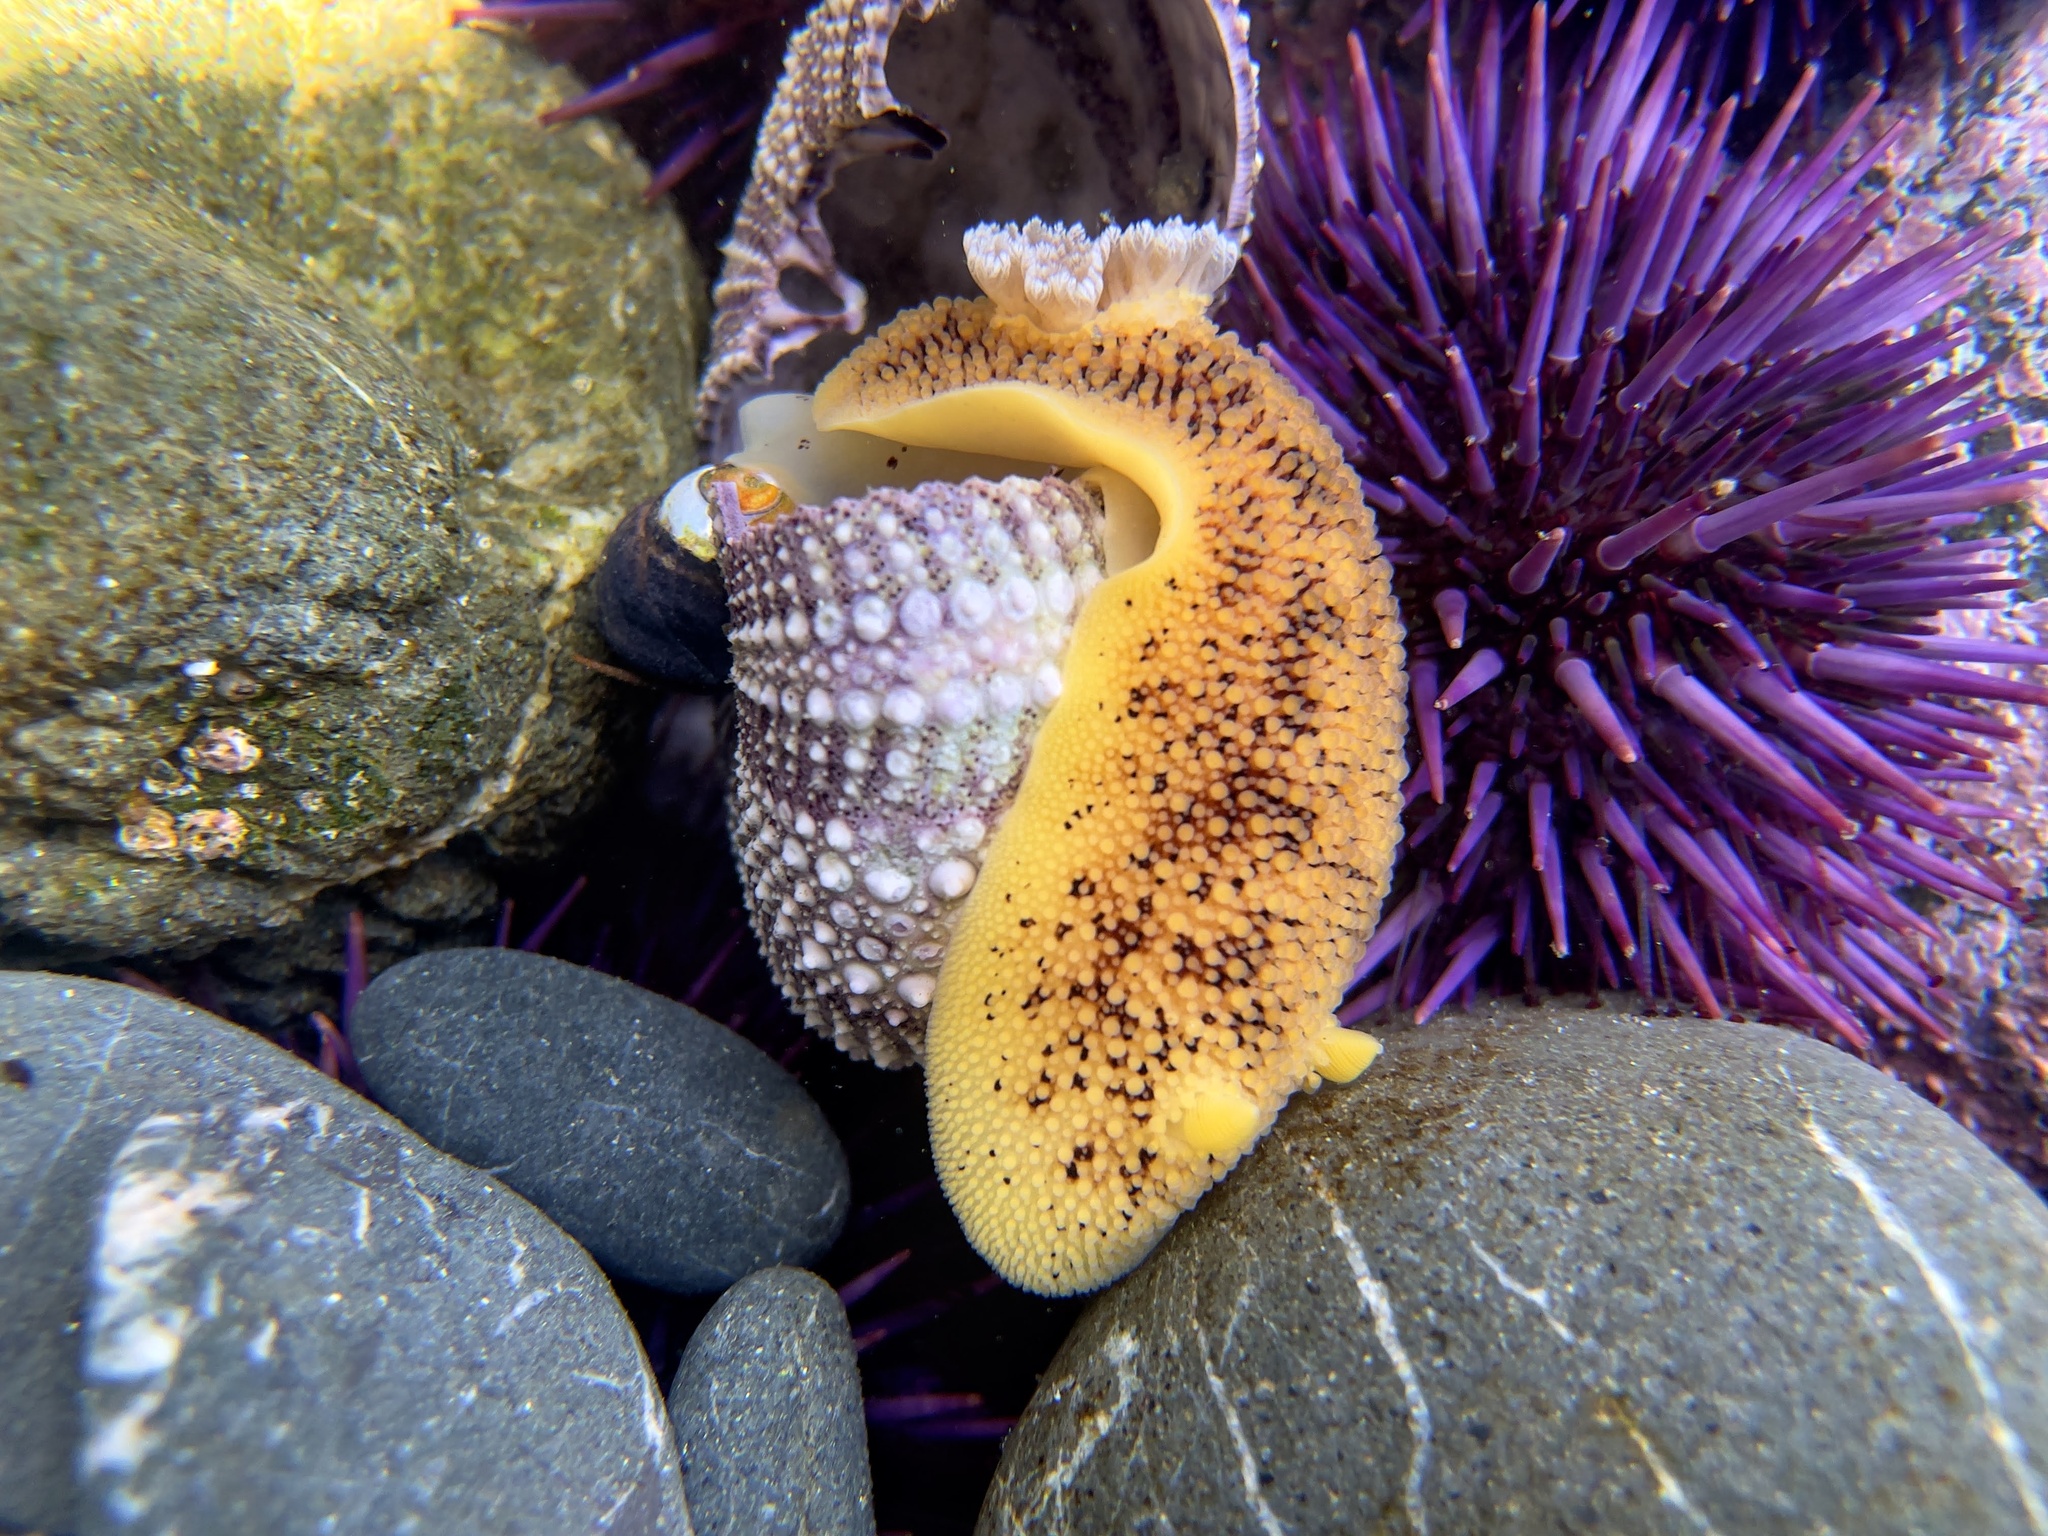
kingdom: Animalia
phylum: Mollusca
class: Gastropoda
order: Nudibranchia
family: Discodorididae
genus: Peltodoris
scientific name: Peltodoris nobilis
